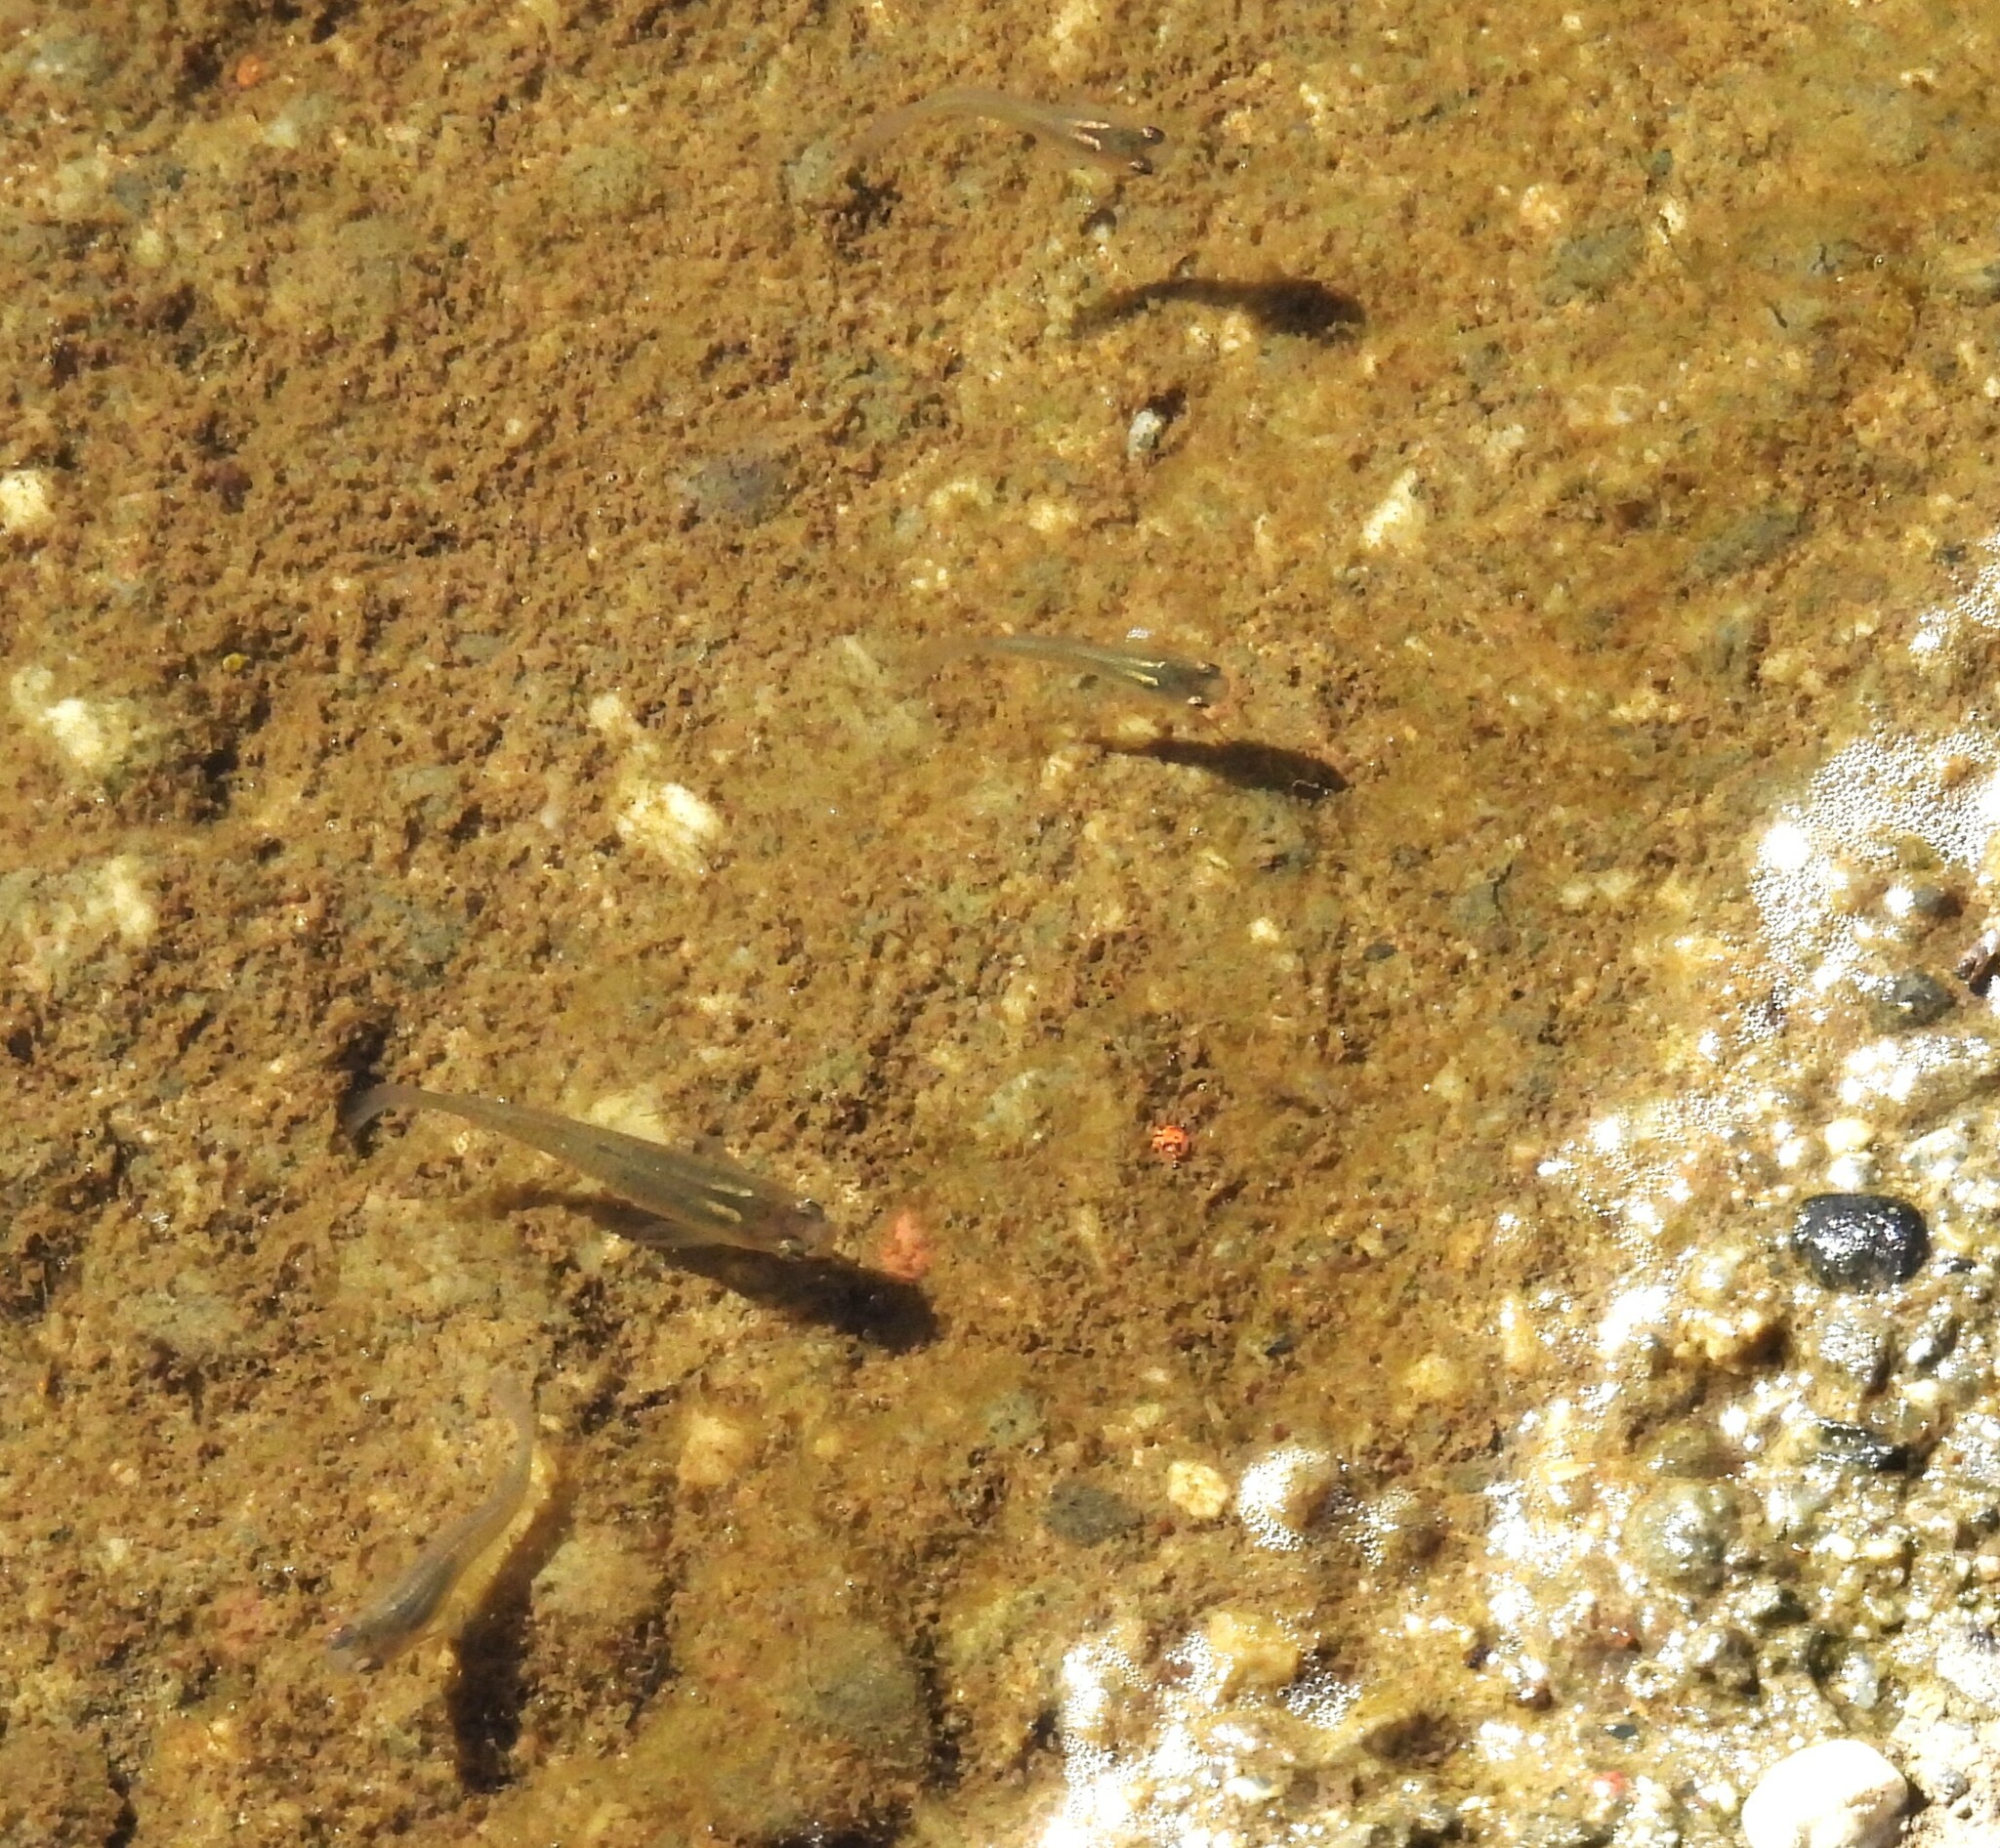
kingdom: Animalia
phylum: Chordata
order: Cyprinodontiformes
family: Poeciliidae
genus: Gambusia
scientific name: Gambusia affinis
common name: Mosquitofish
